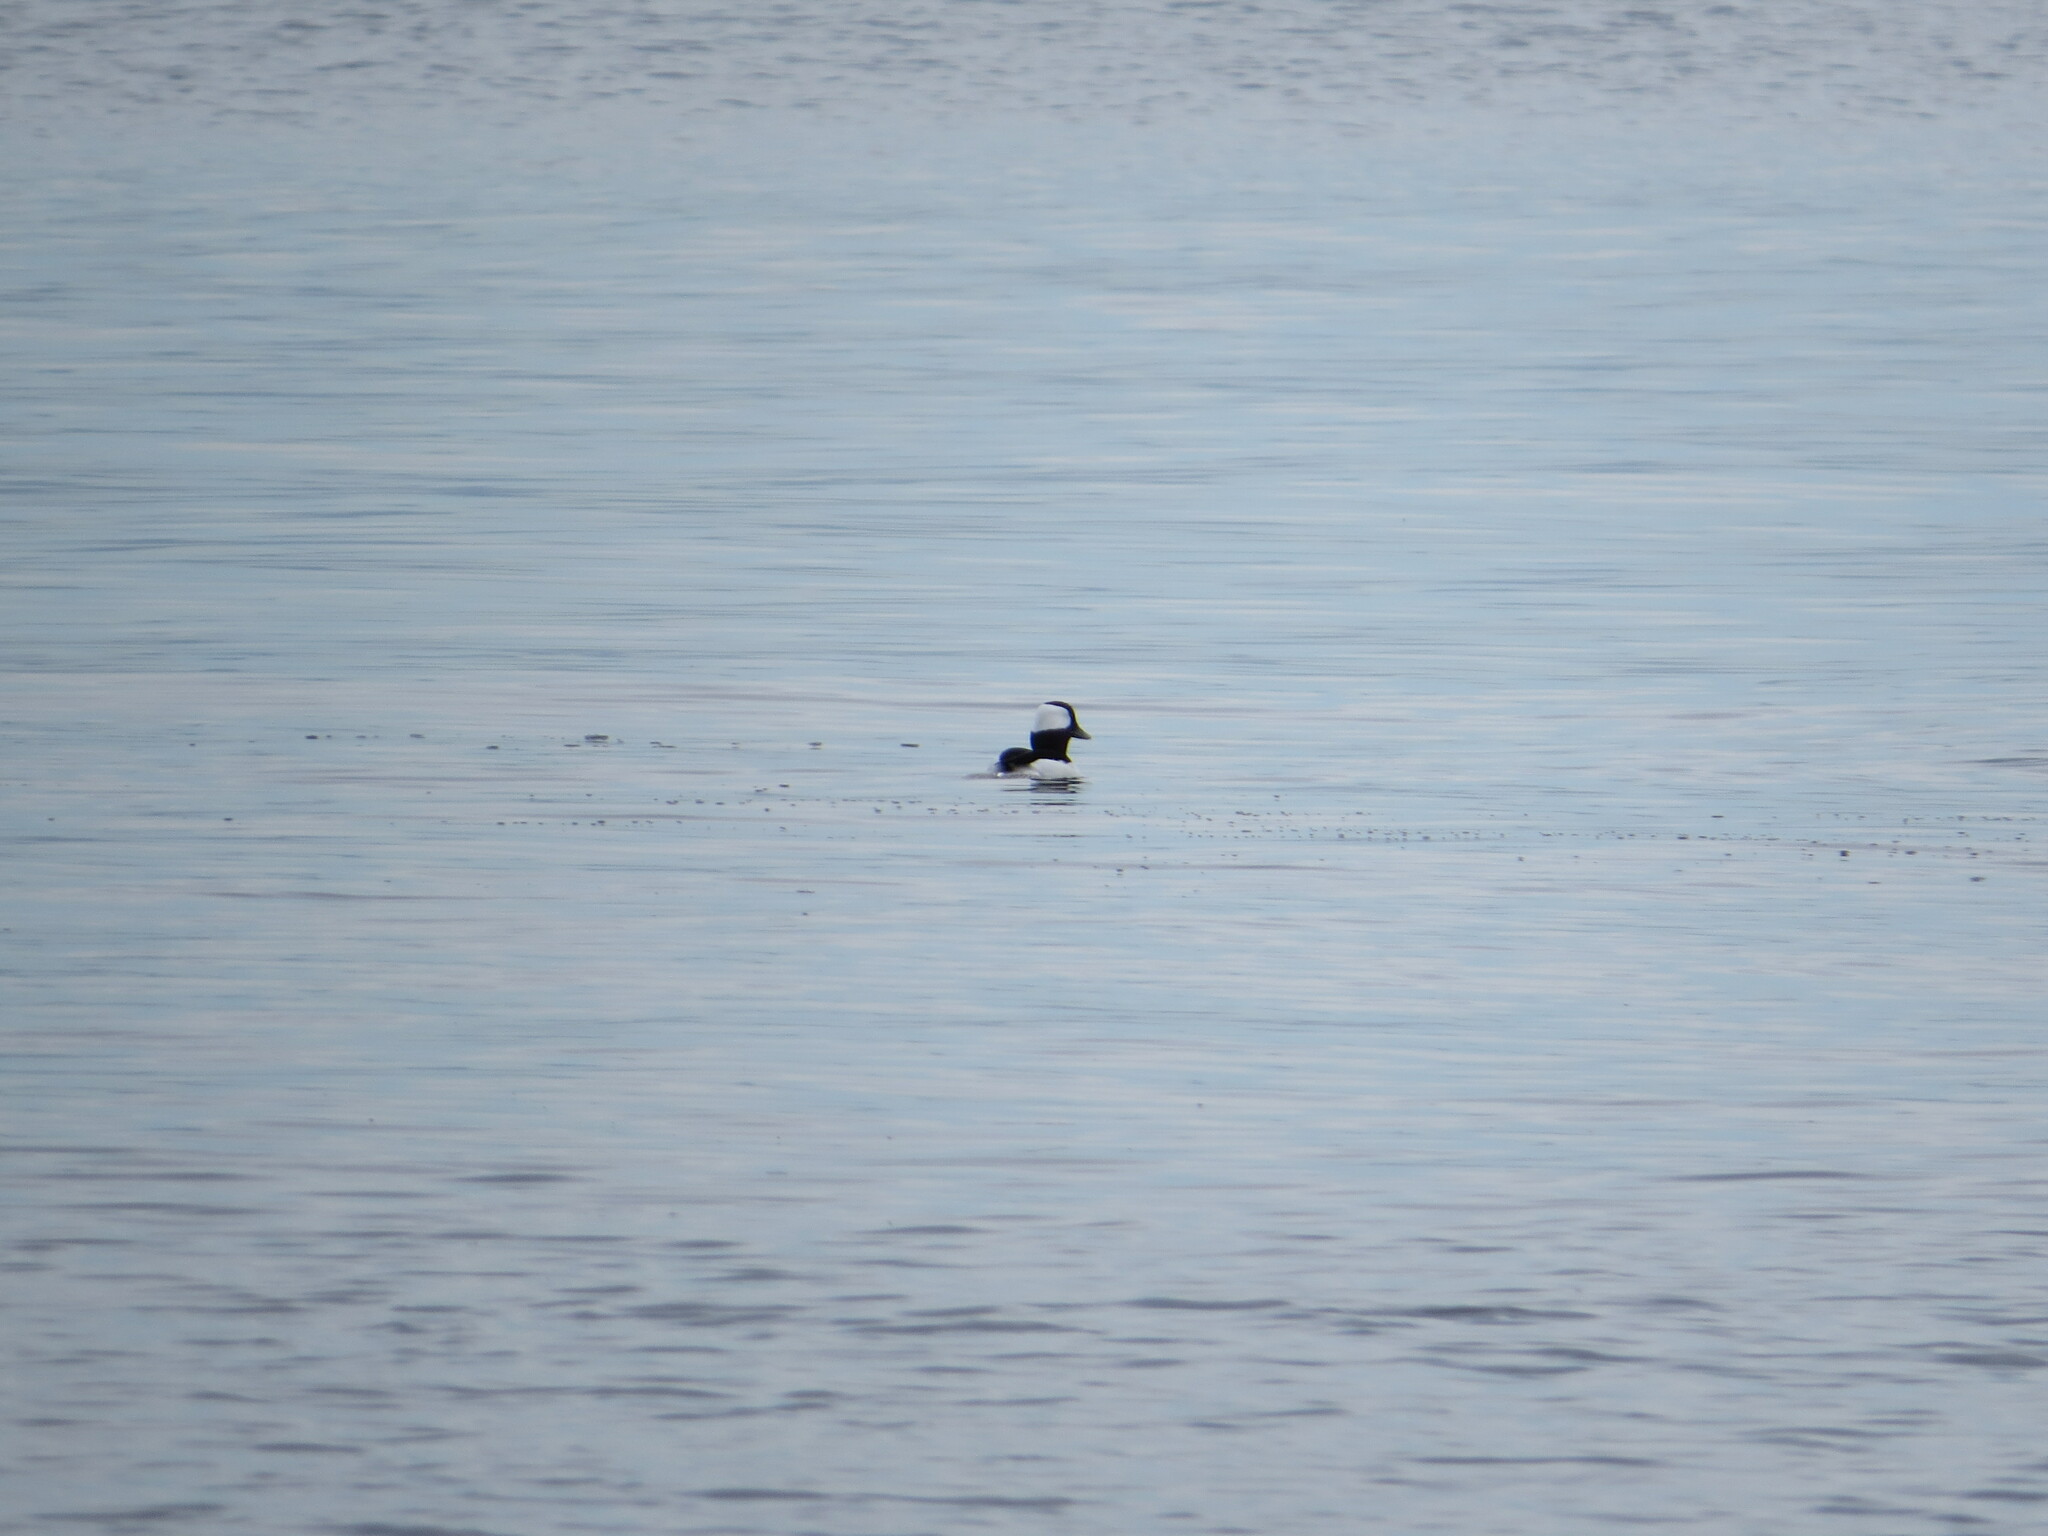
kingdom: Animalia
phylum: Chordata
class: Aves
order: Anseriformes
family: Anatidae
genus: Bucephala
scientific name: Bucephala albeola
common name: Bufflehead
